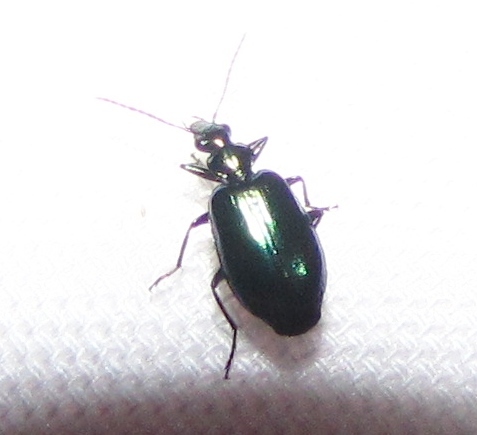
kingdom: Animalia
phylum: Arthropoda
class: Insecta
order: Coleoptera
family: Carabidae
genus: Lebia
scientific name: Lebia viridis
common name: Flower lebia beetle
